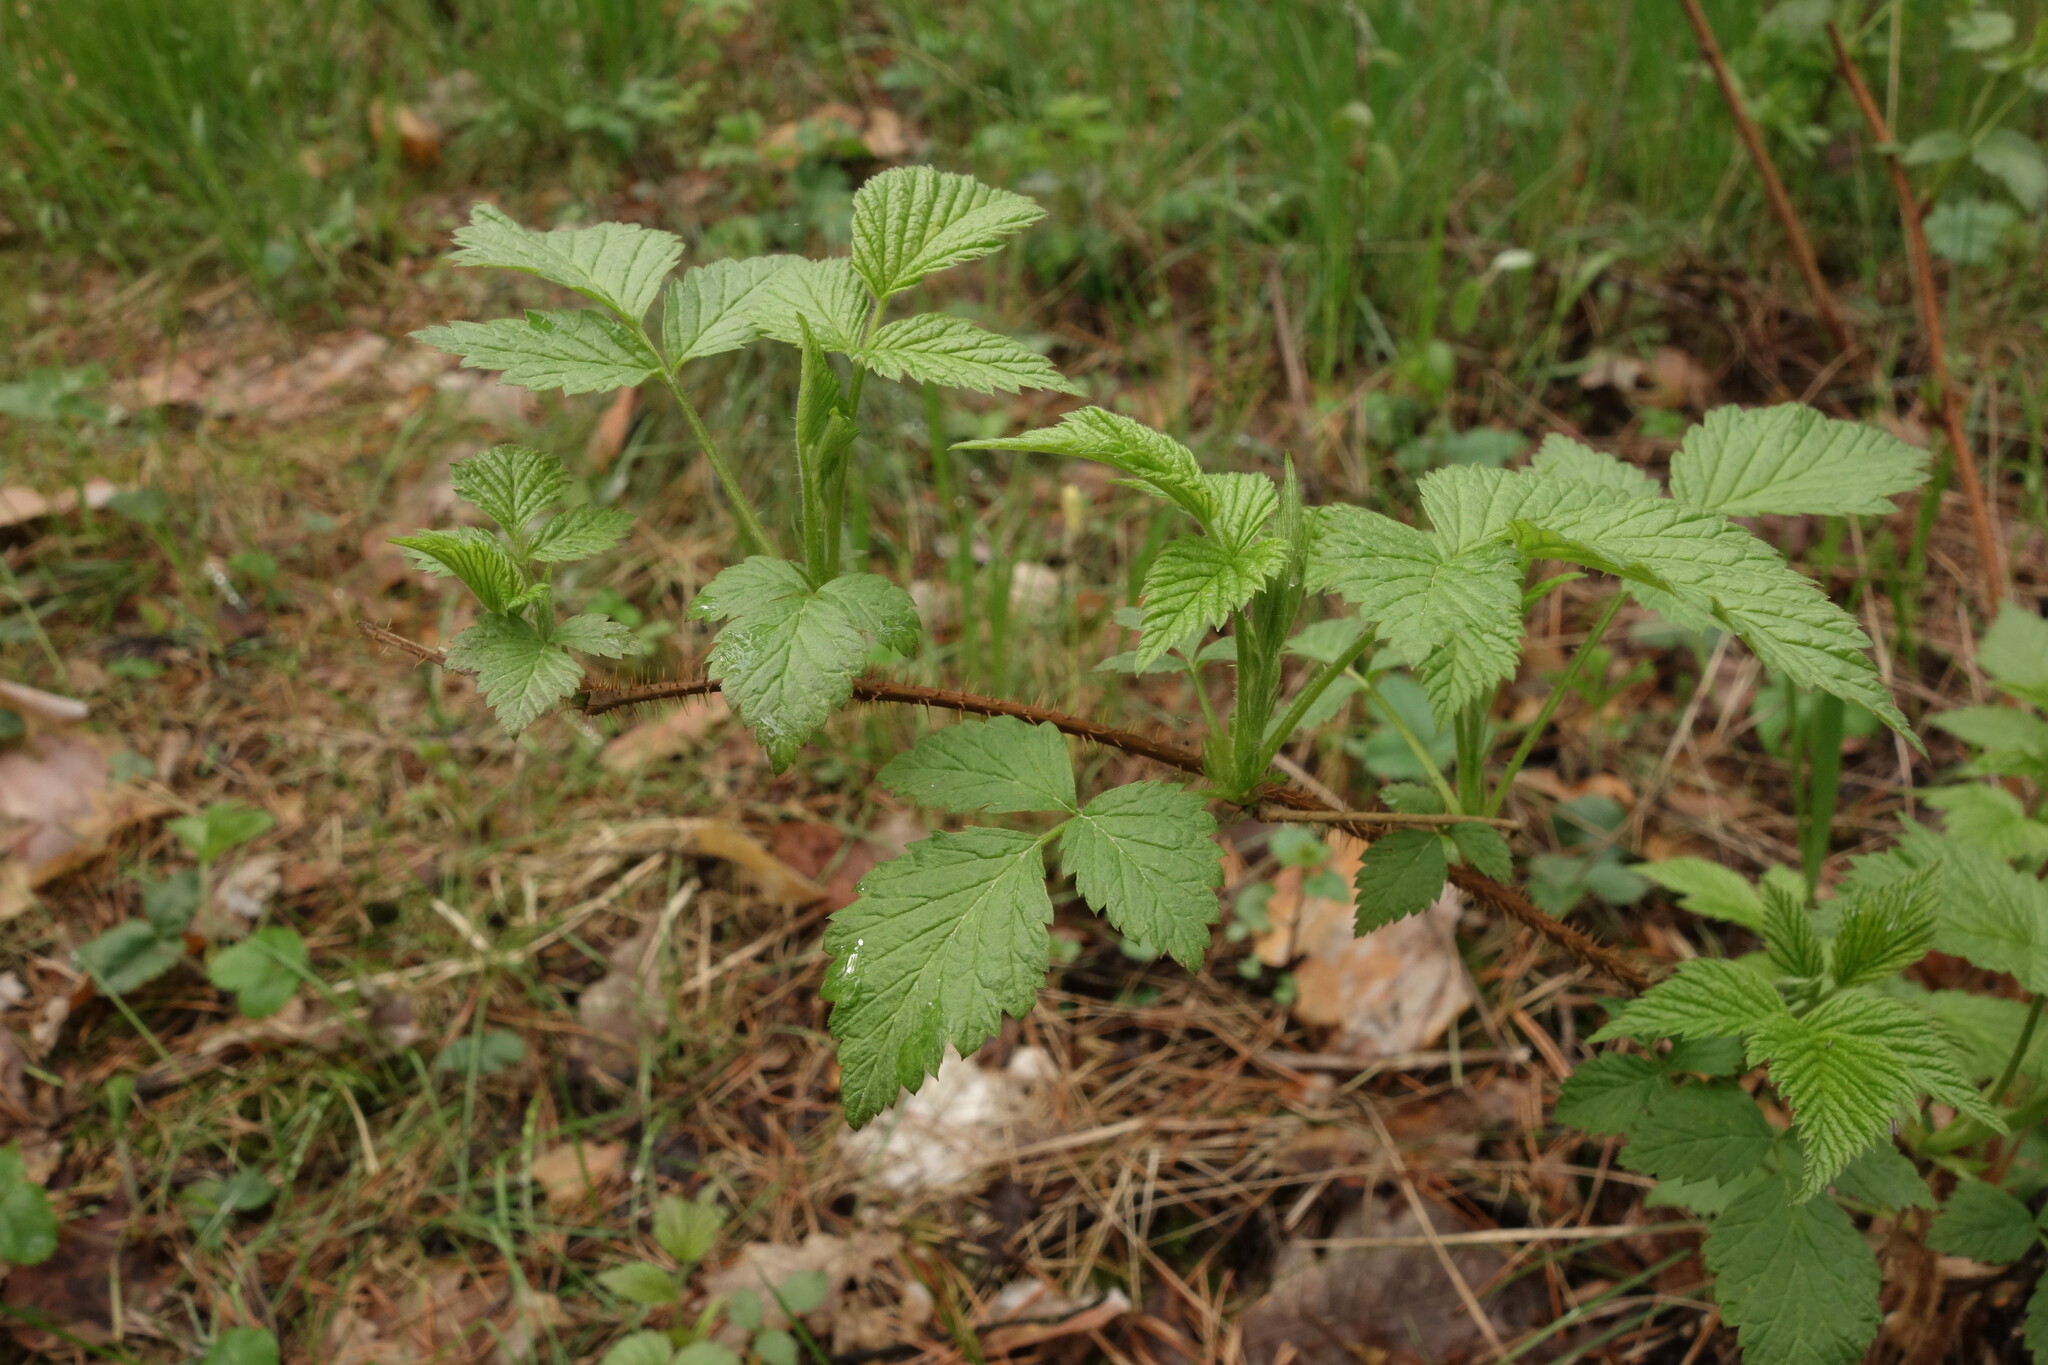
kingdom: Plantae
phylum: Tracheophyta
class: Magnoliopsida
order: Rosales
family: Rosaceae
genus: Rubus
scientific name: Rubus idaeus
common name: Raspberry
